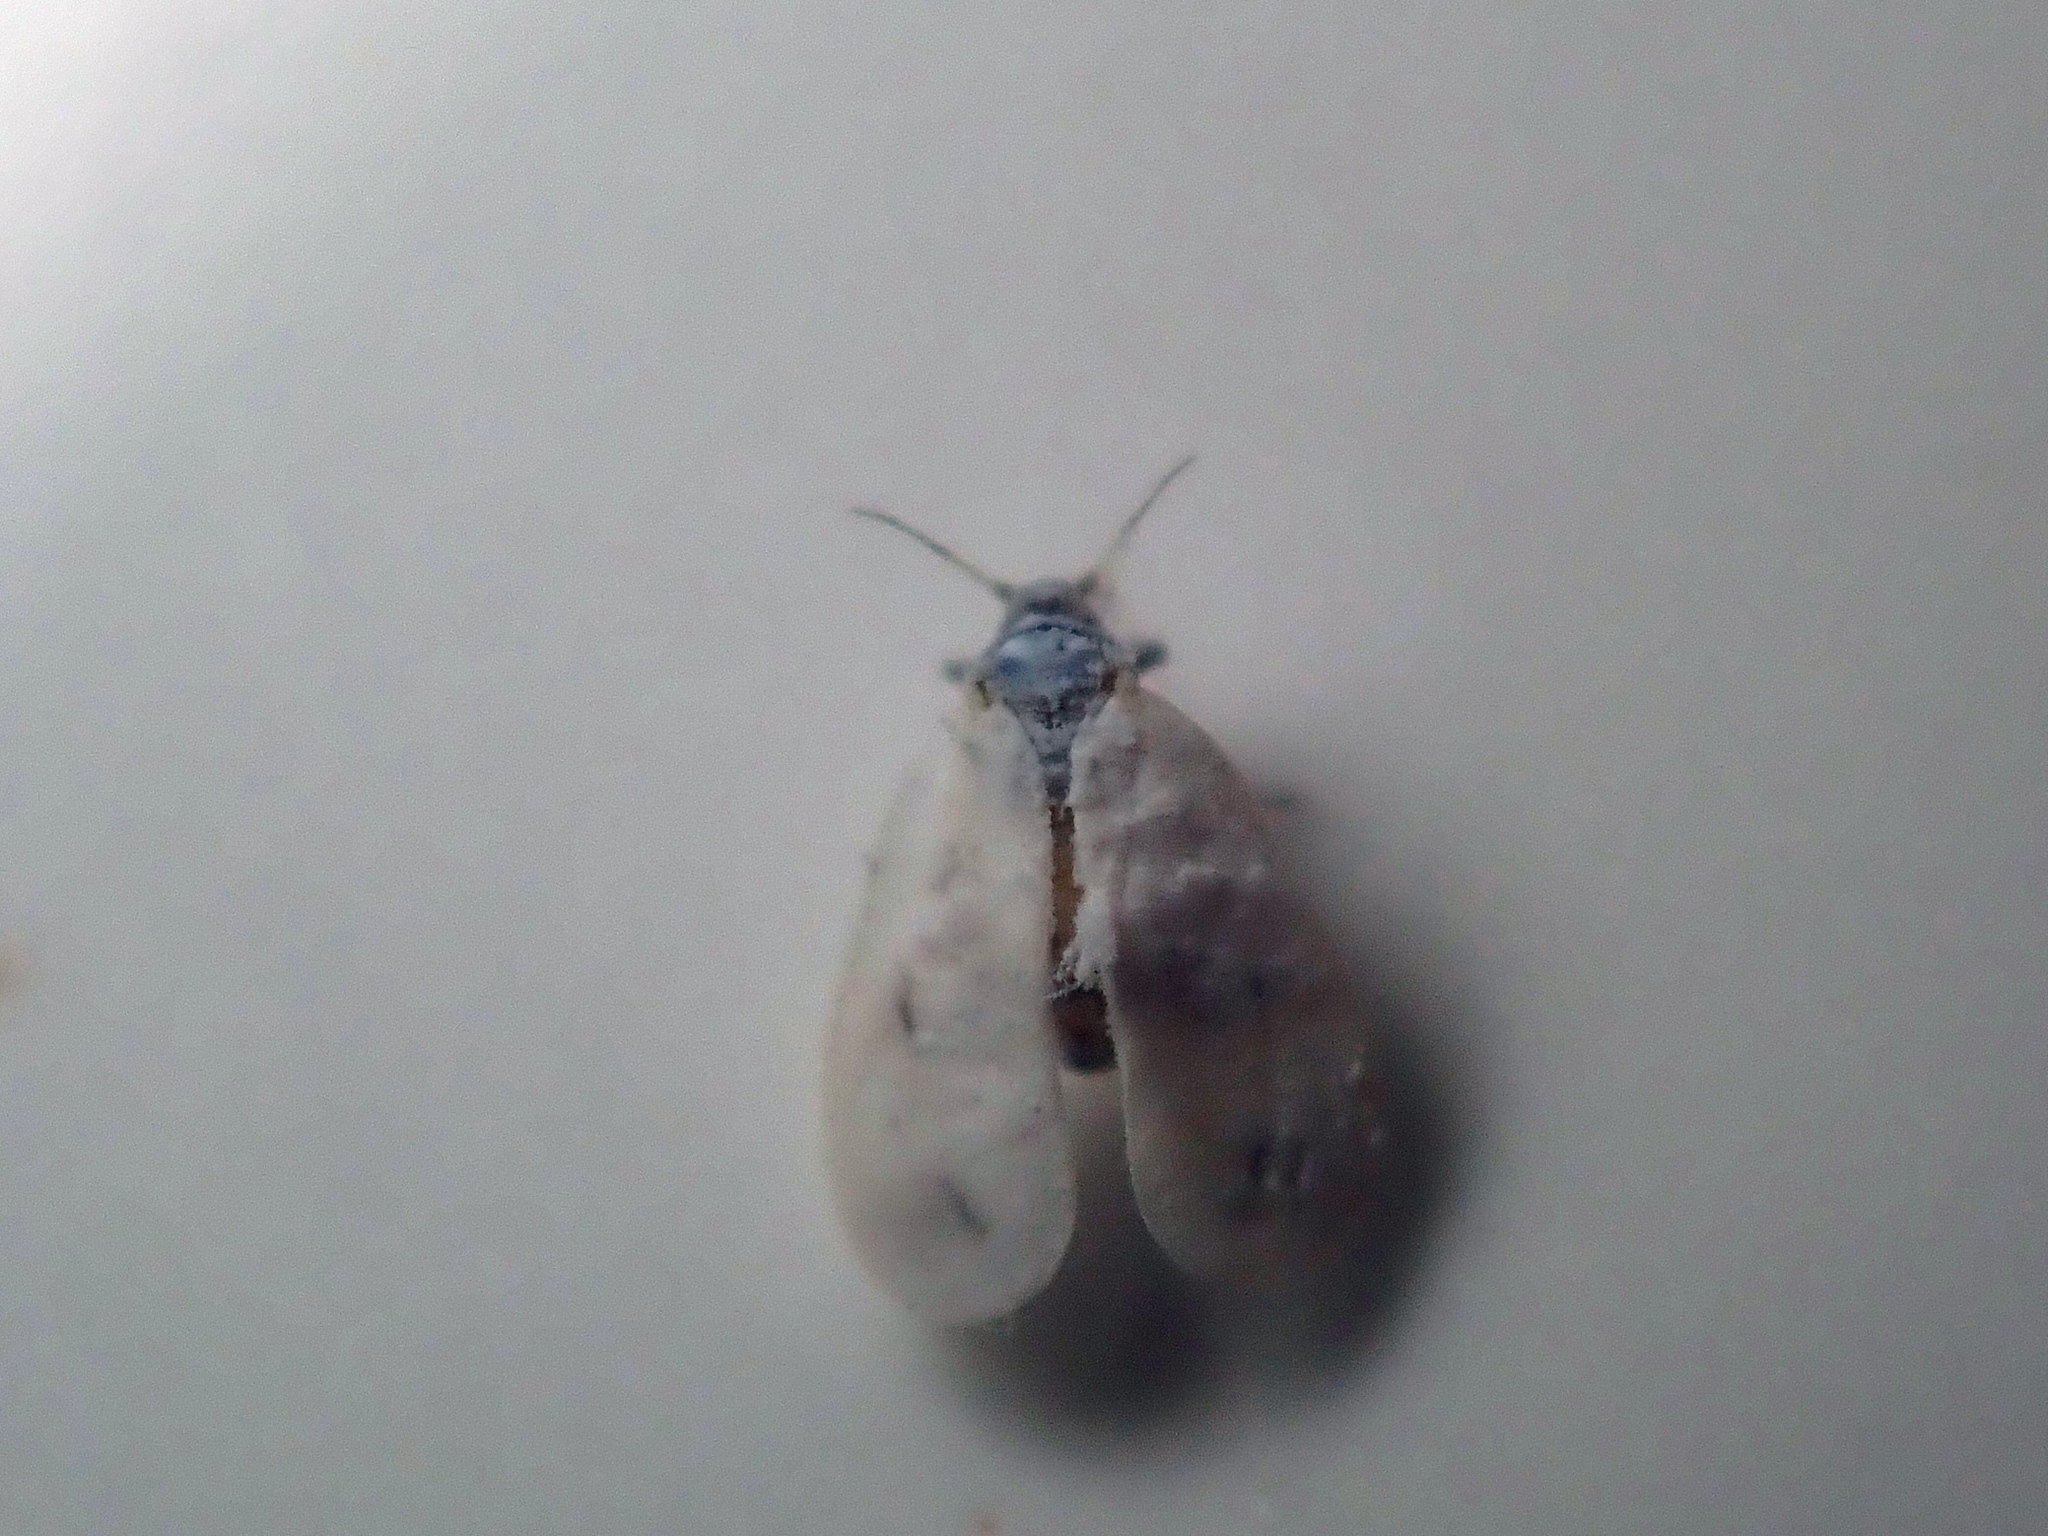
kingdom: Animalia
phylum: Arthropoda
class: Insecta
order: Hemiptera
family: Aleyrodidae
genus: Aleyrodes
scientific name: Aleyrodes proletella
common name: Cabbage whitefly
